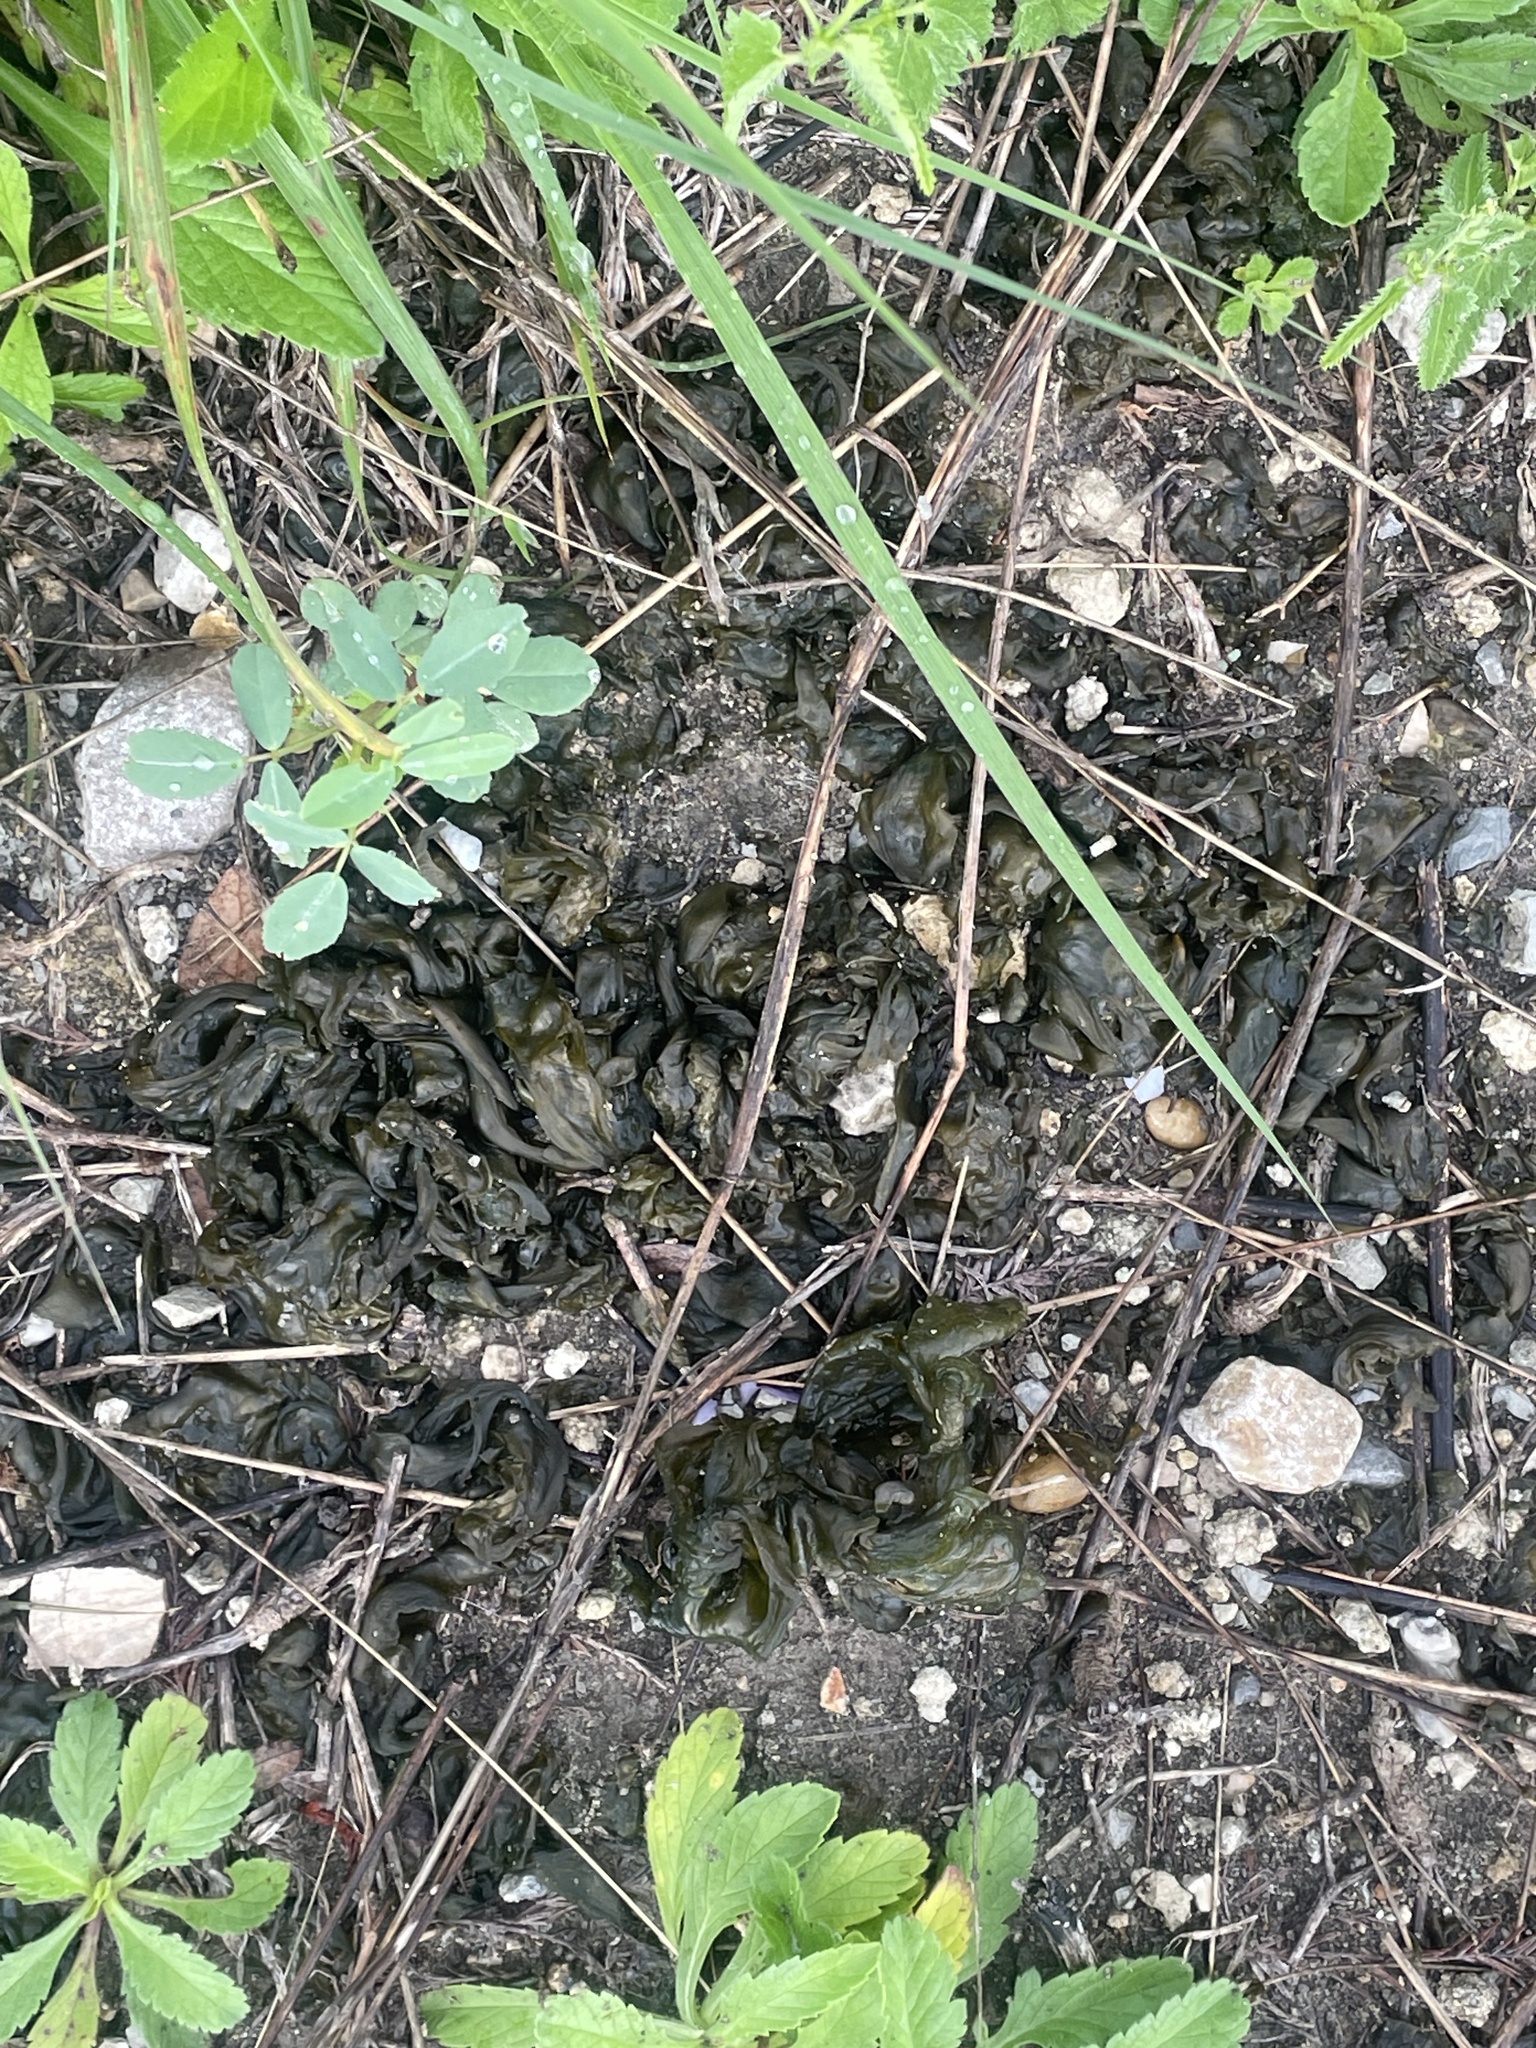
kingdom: Bacteria
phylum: Cyanobacteria
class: Cyanobacteriia
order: Cyanobacteriales
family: Nostocaceae
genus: Nostoc
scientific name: Nostoc commune
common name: Star jelly
